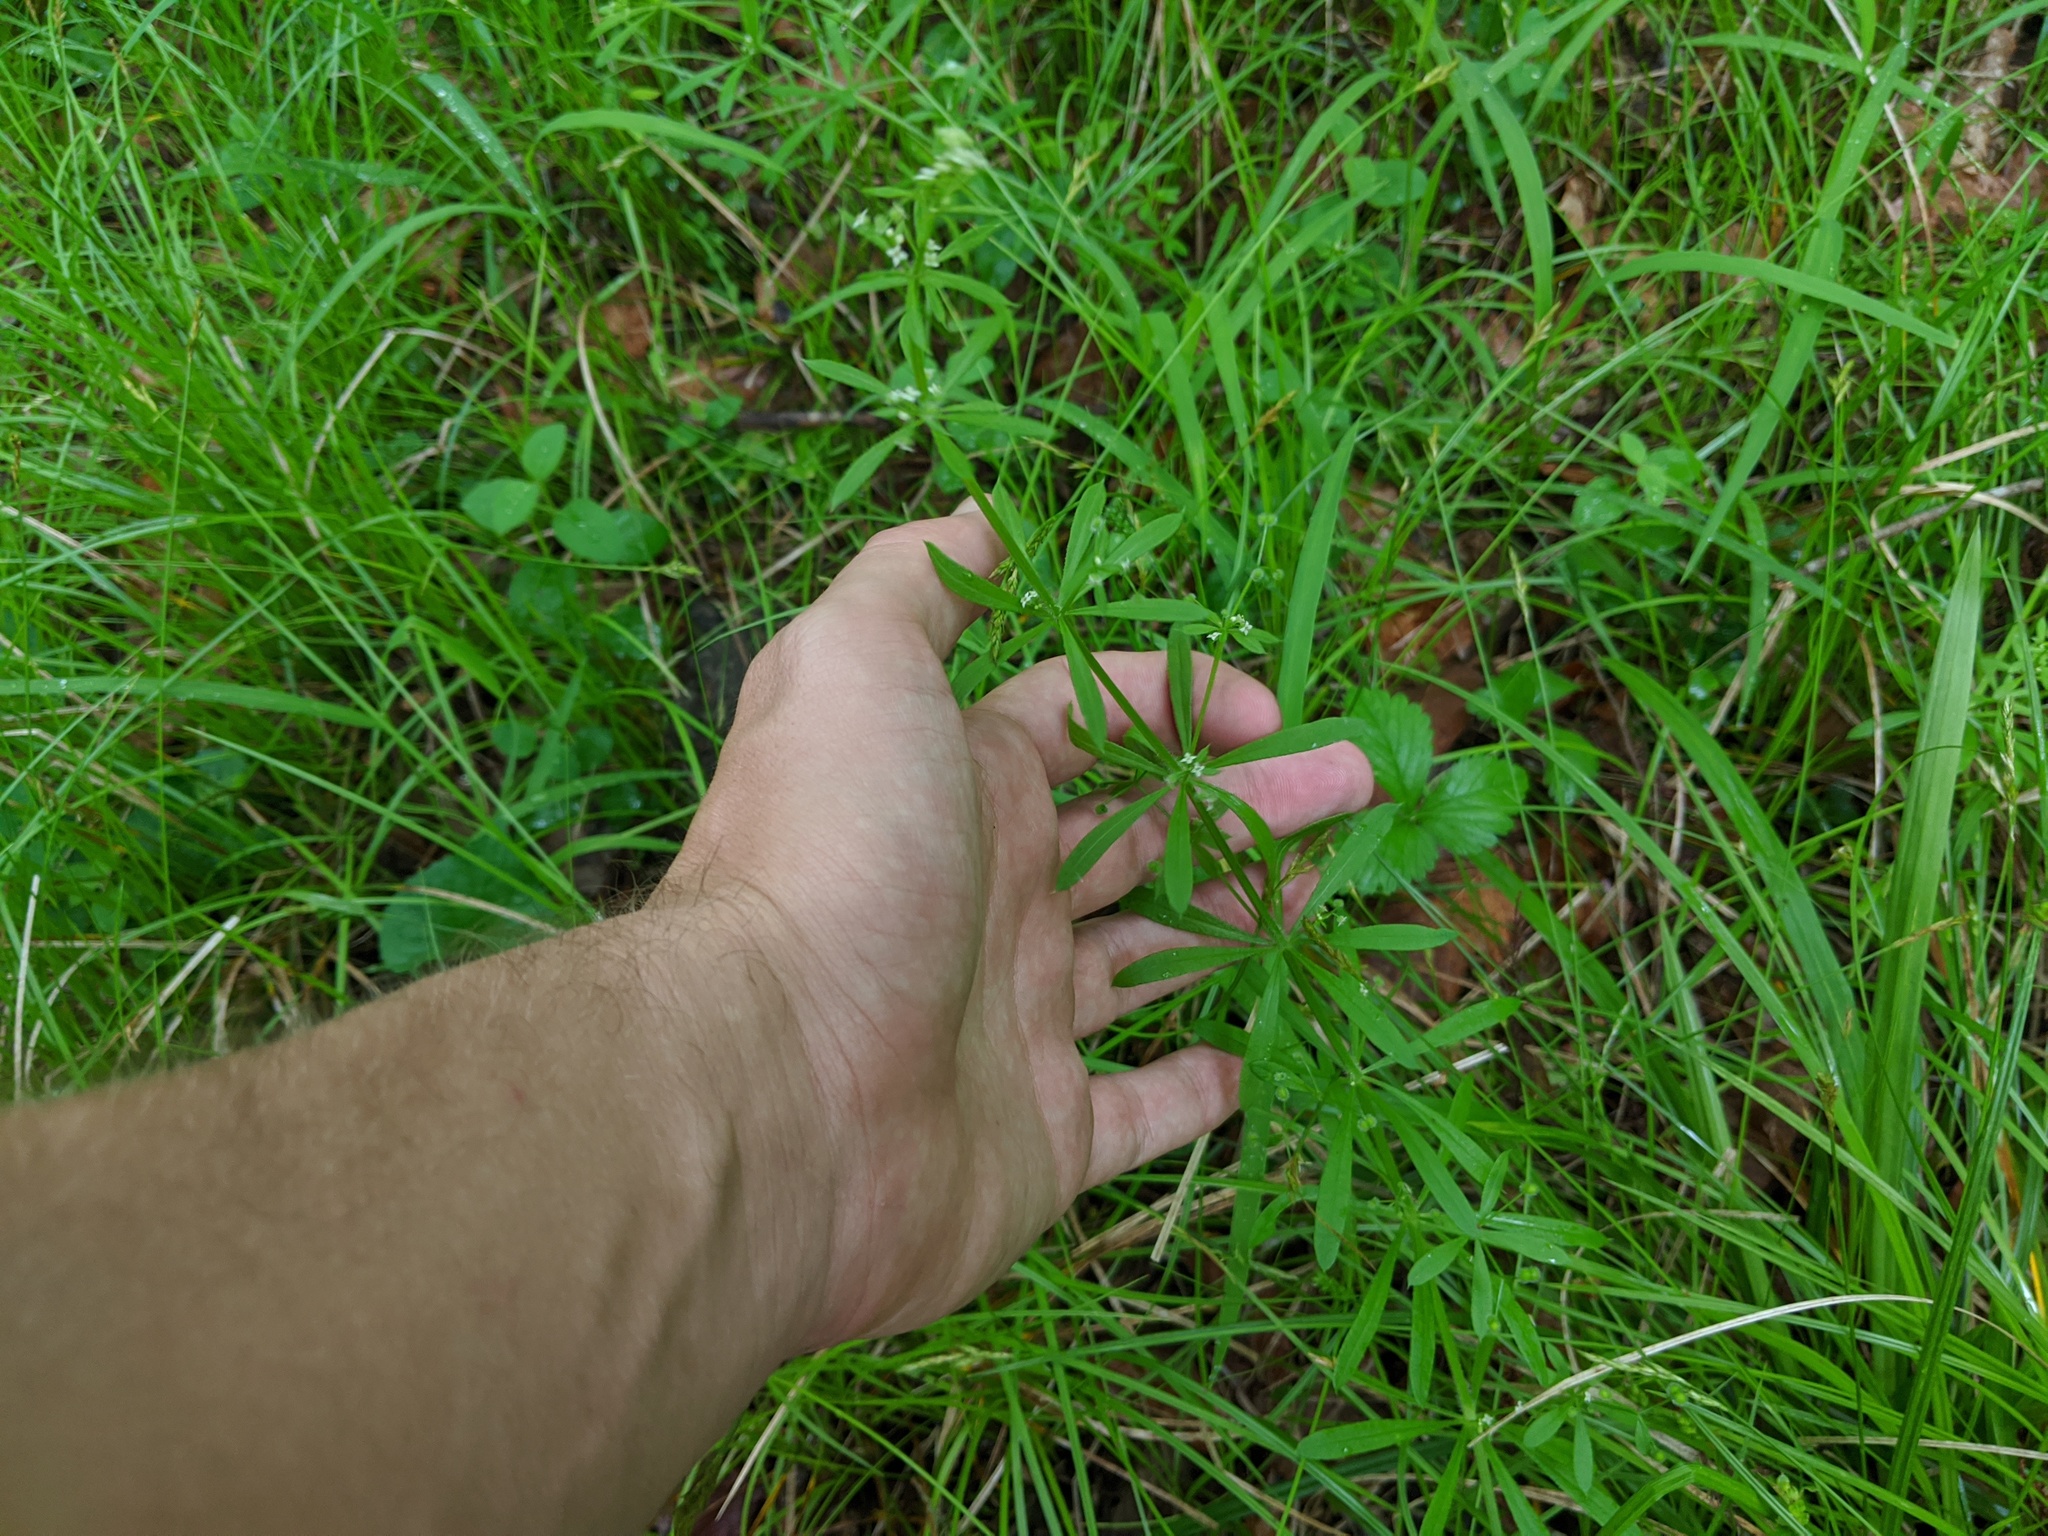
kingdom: Plantae
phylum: Tracheophyta
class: Magnoliopsida
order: Gentianales
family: Rubiaceae
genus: Galium
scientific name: Galium aparine
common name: Cleavers
